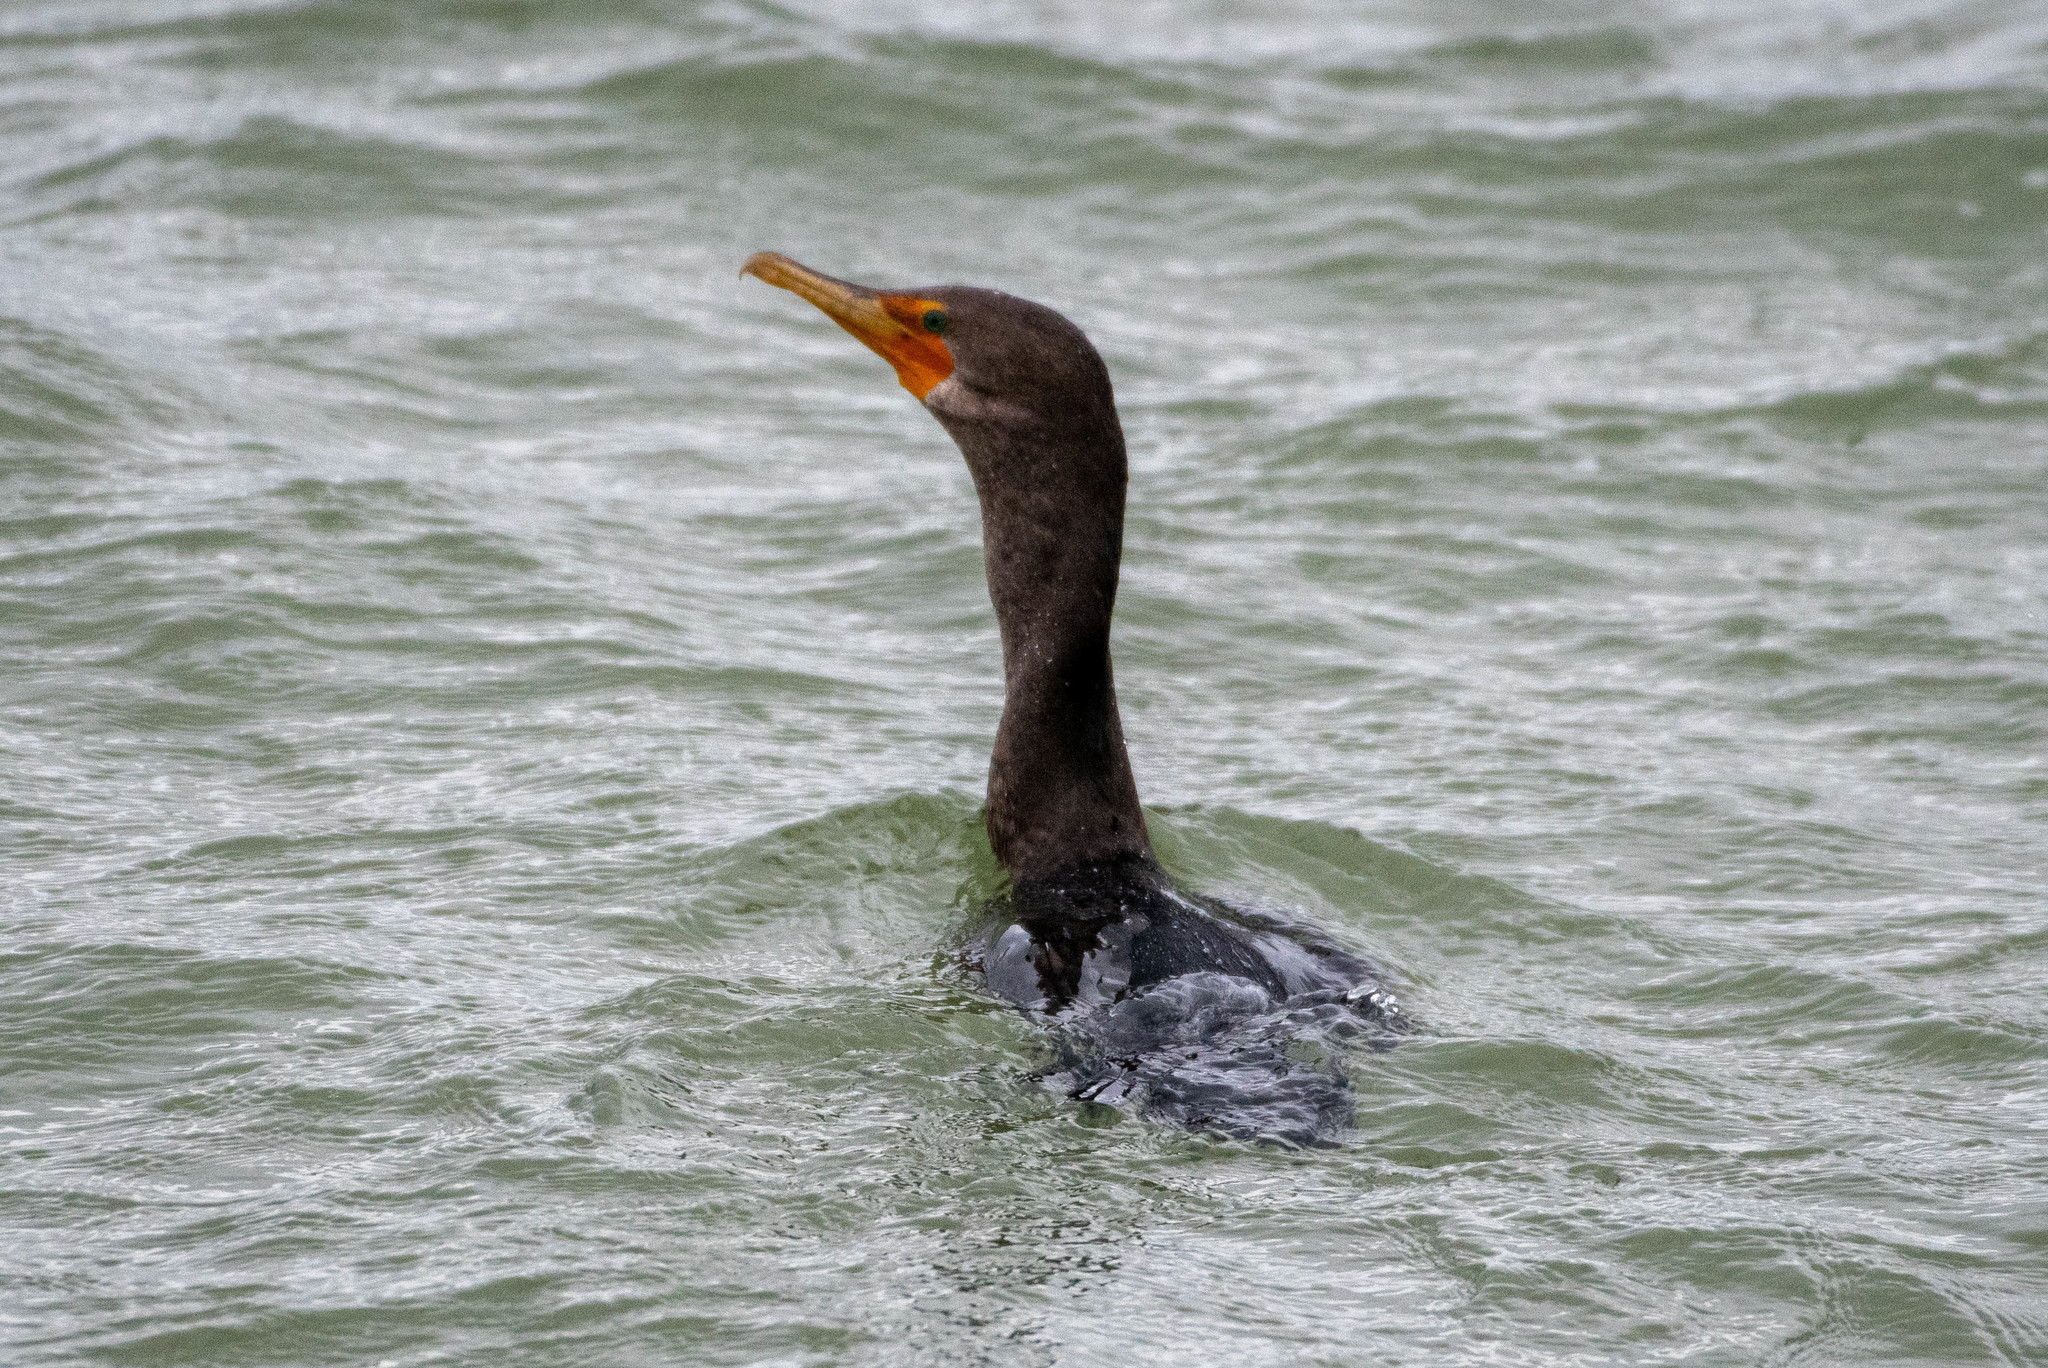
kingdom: Animalia
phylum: Chordata
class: Aves
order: Suliformes
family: Phalacrocoracidae
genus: Phalacrocorax
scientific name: Phalacrocorax auritus
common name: Double-crested cormorant
